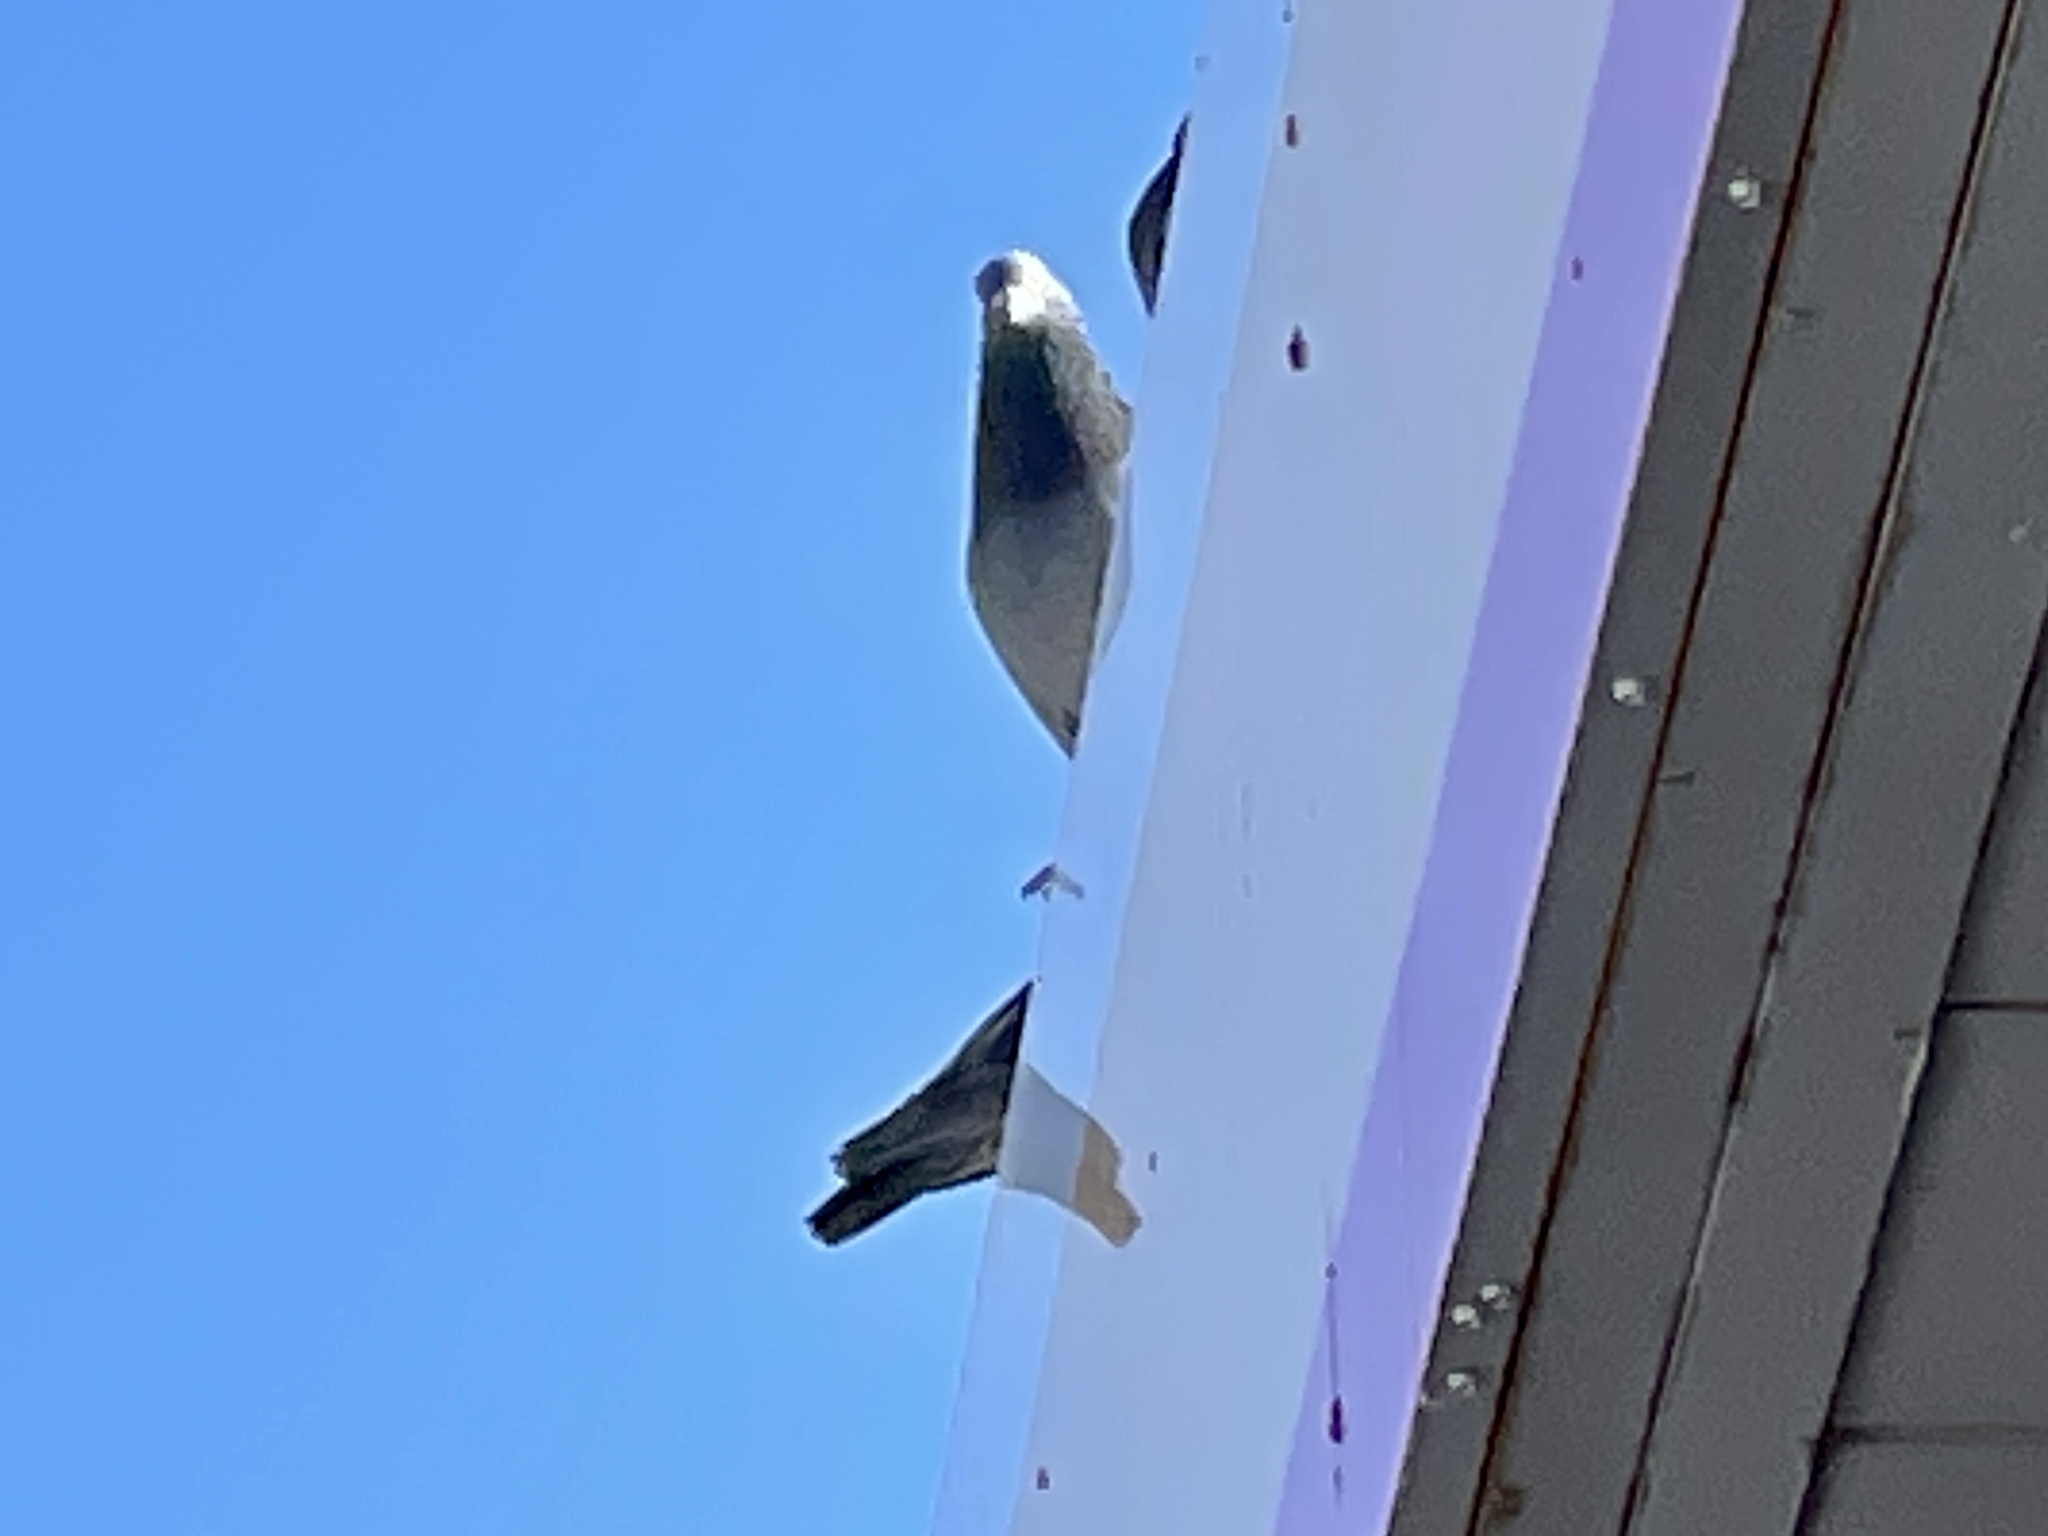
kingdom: Animalia
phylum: Chordata
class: Aves
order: Columbiformes
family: Columbidae
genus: Columba
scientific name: Columba livia
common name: Rock pigeon
